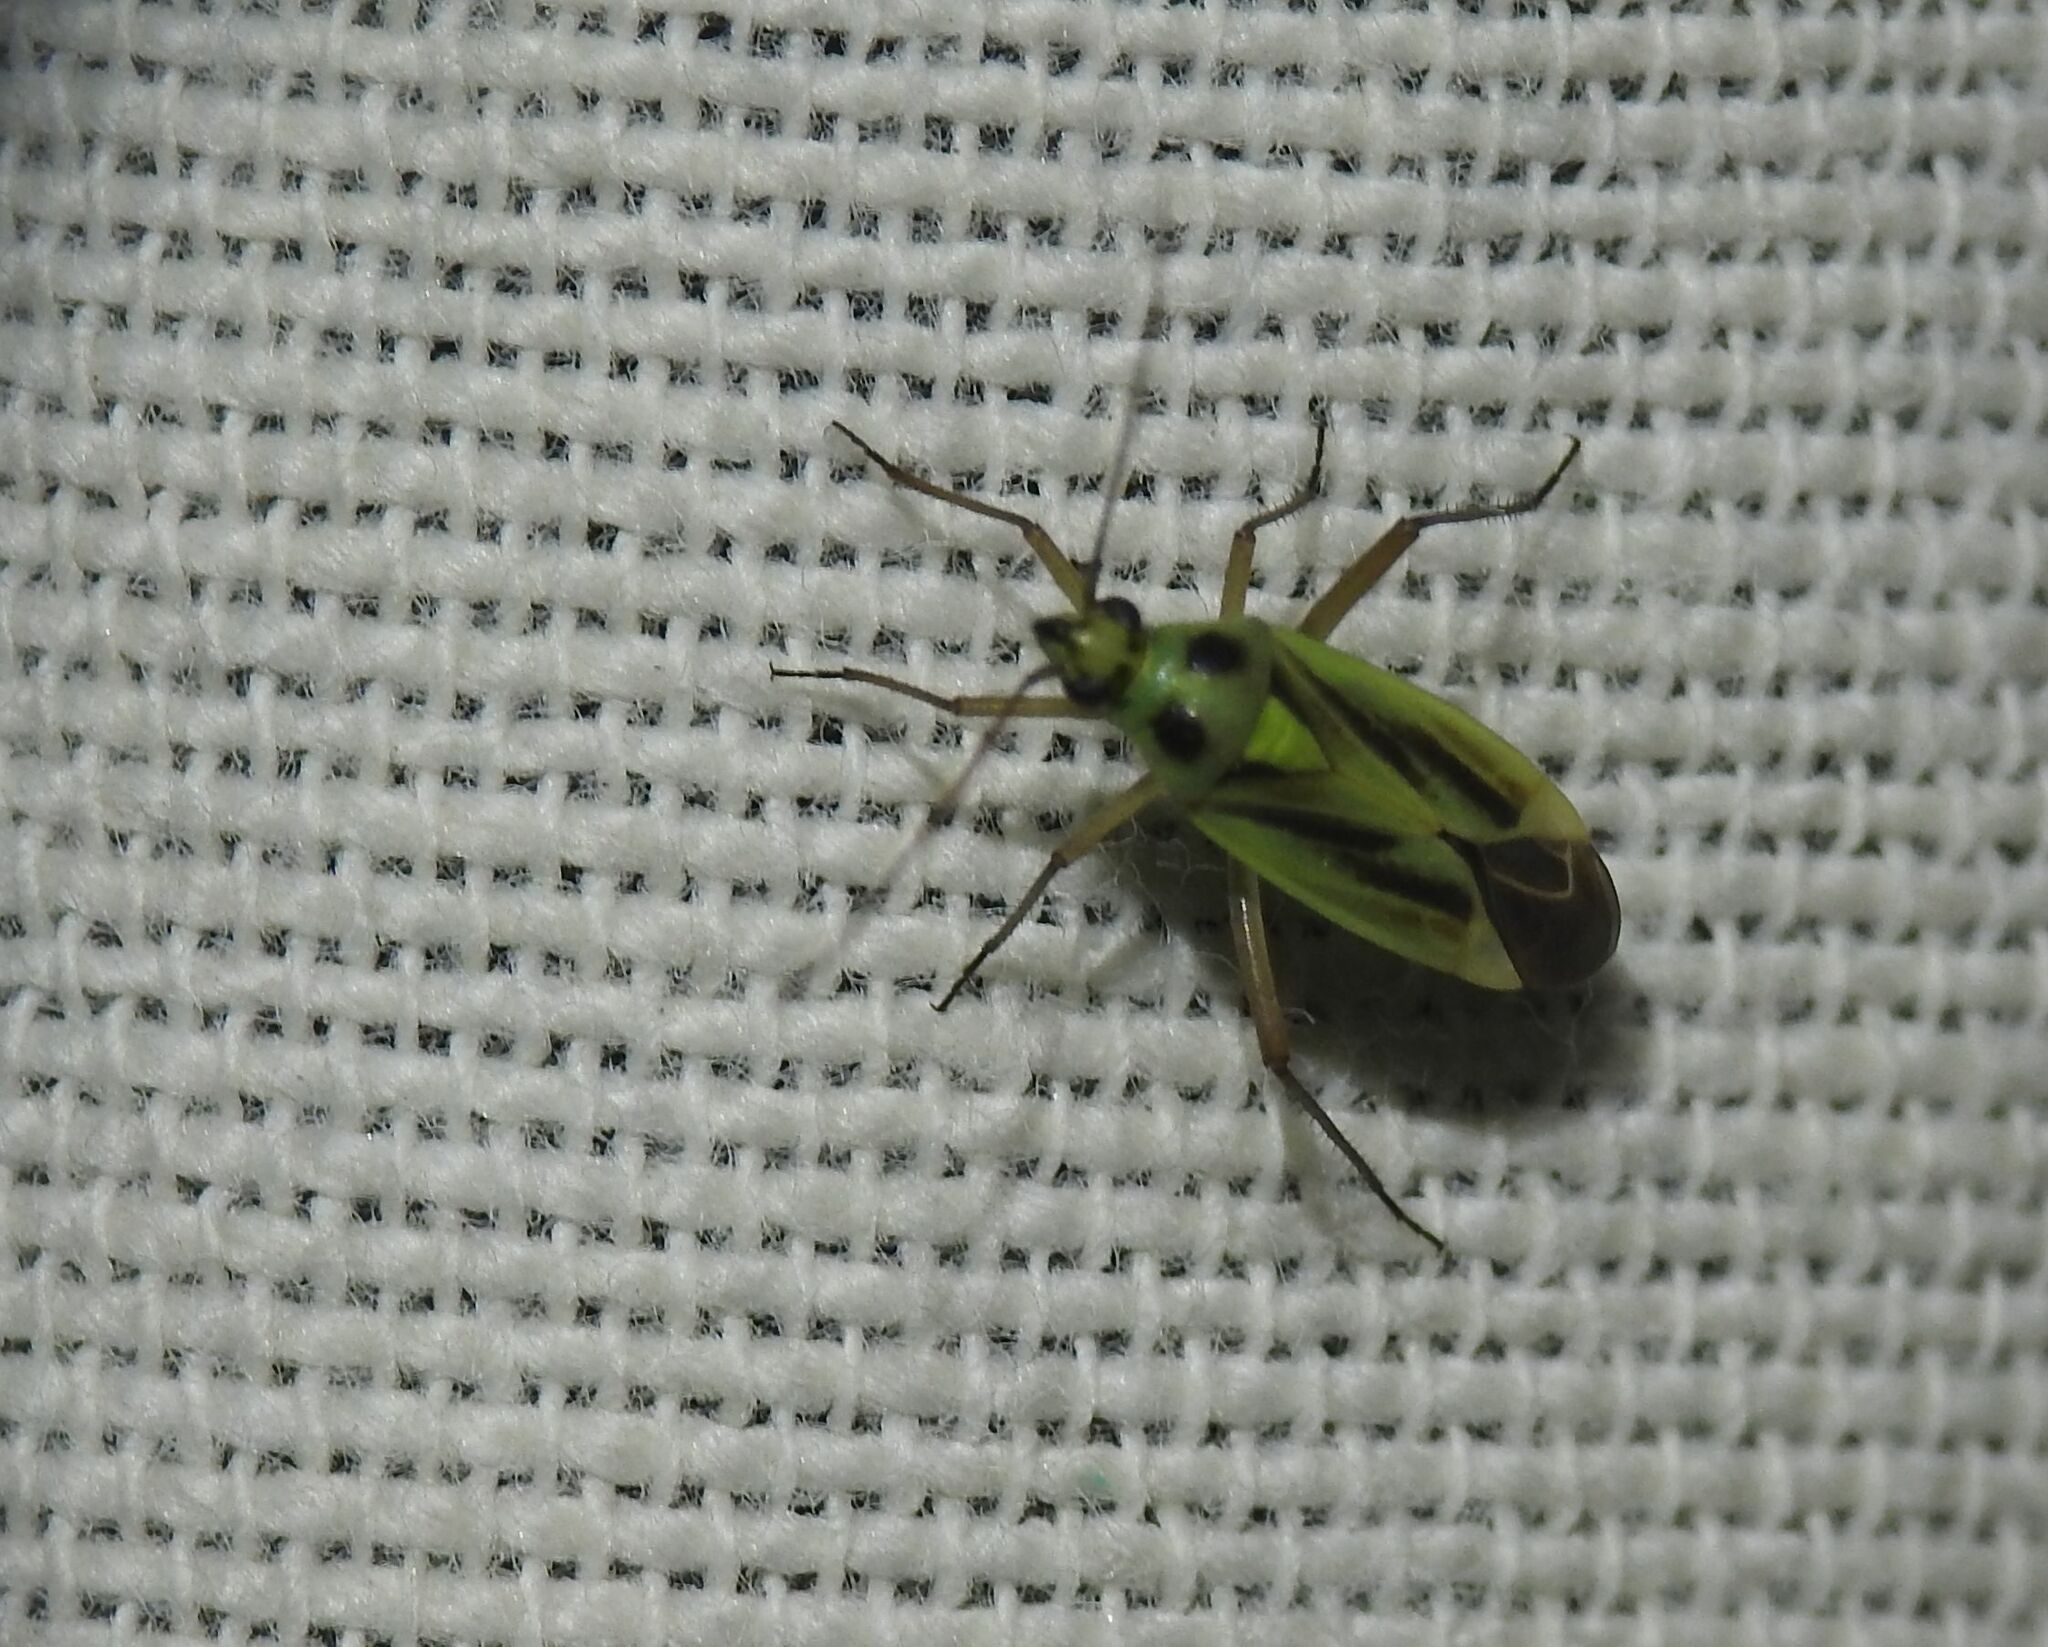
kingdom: Animalia
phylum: Arthropoda
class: Insecta
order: Hemiptera
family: Miridae
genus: Stenotus
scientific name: Stenotus binotatus
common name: Plant bug
